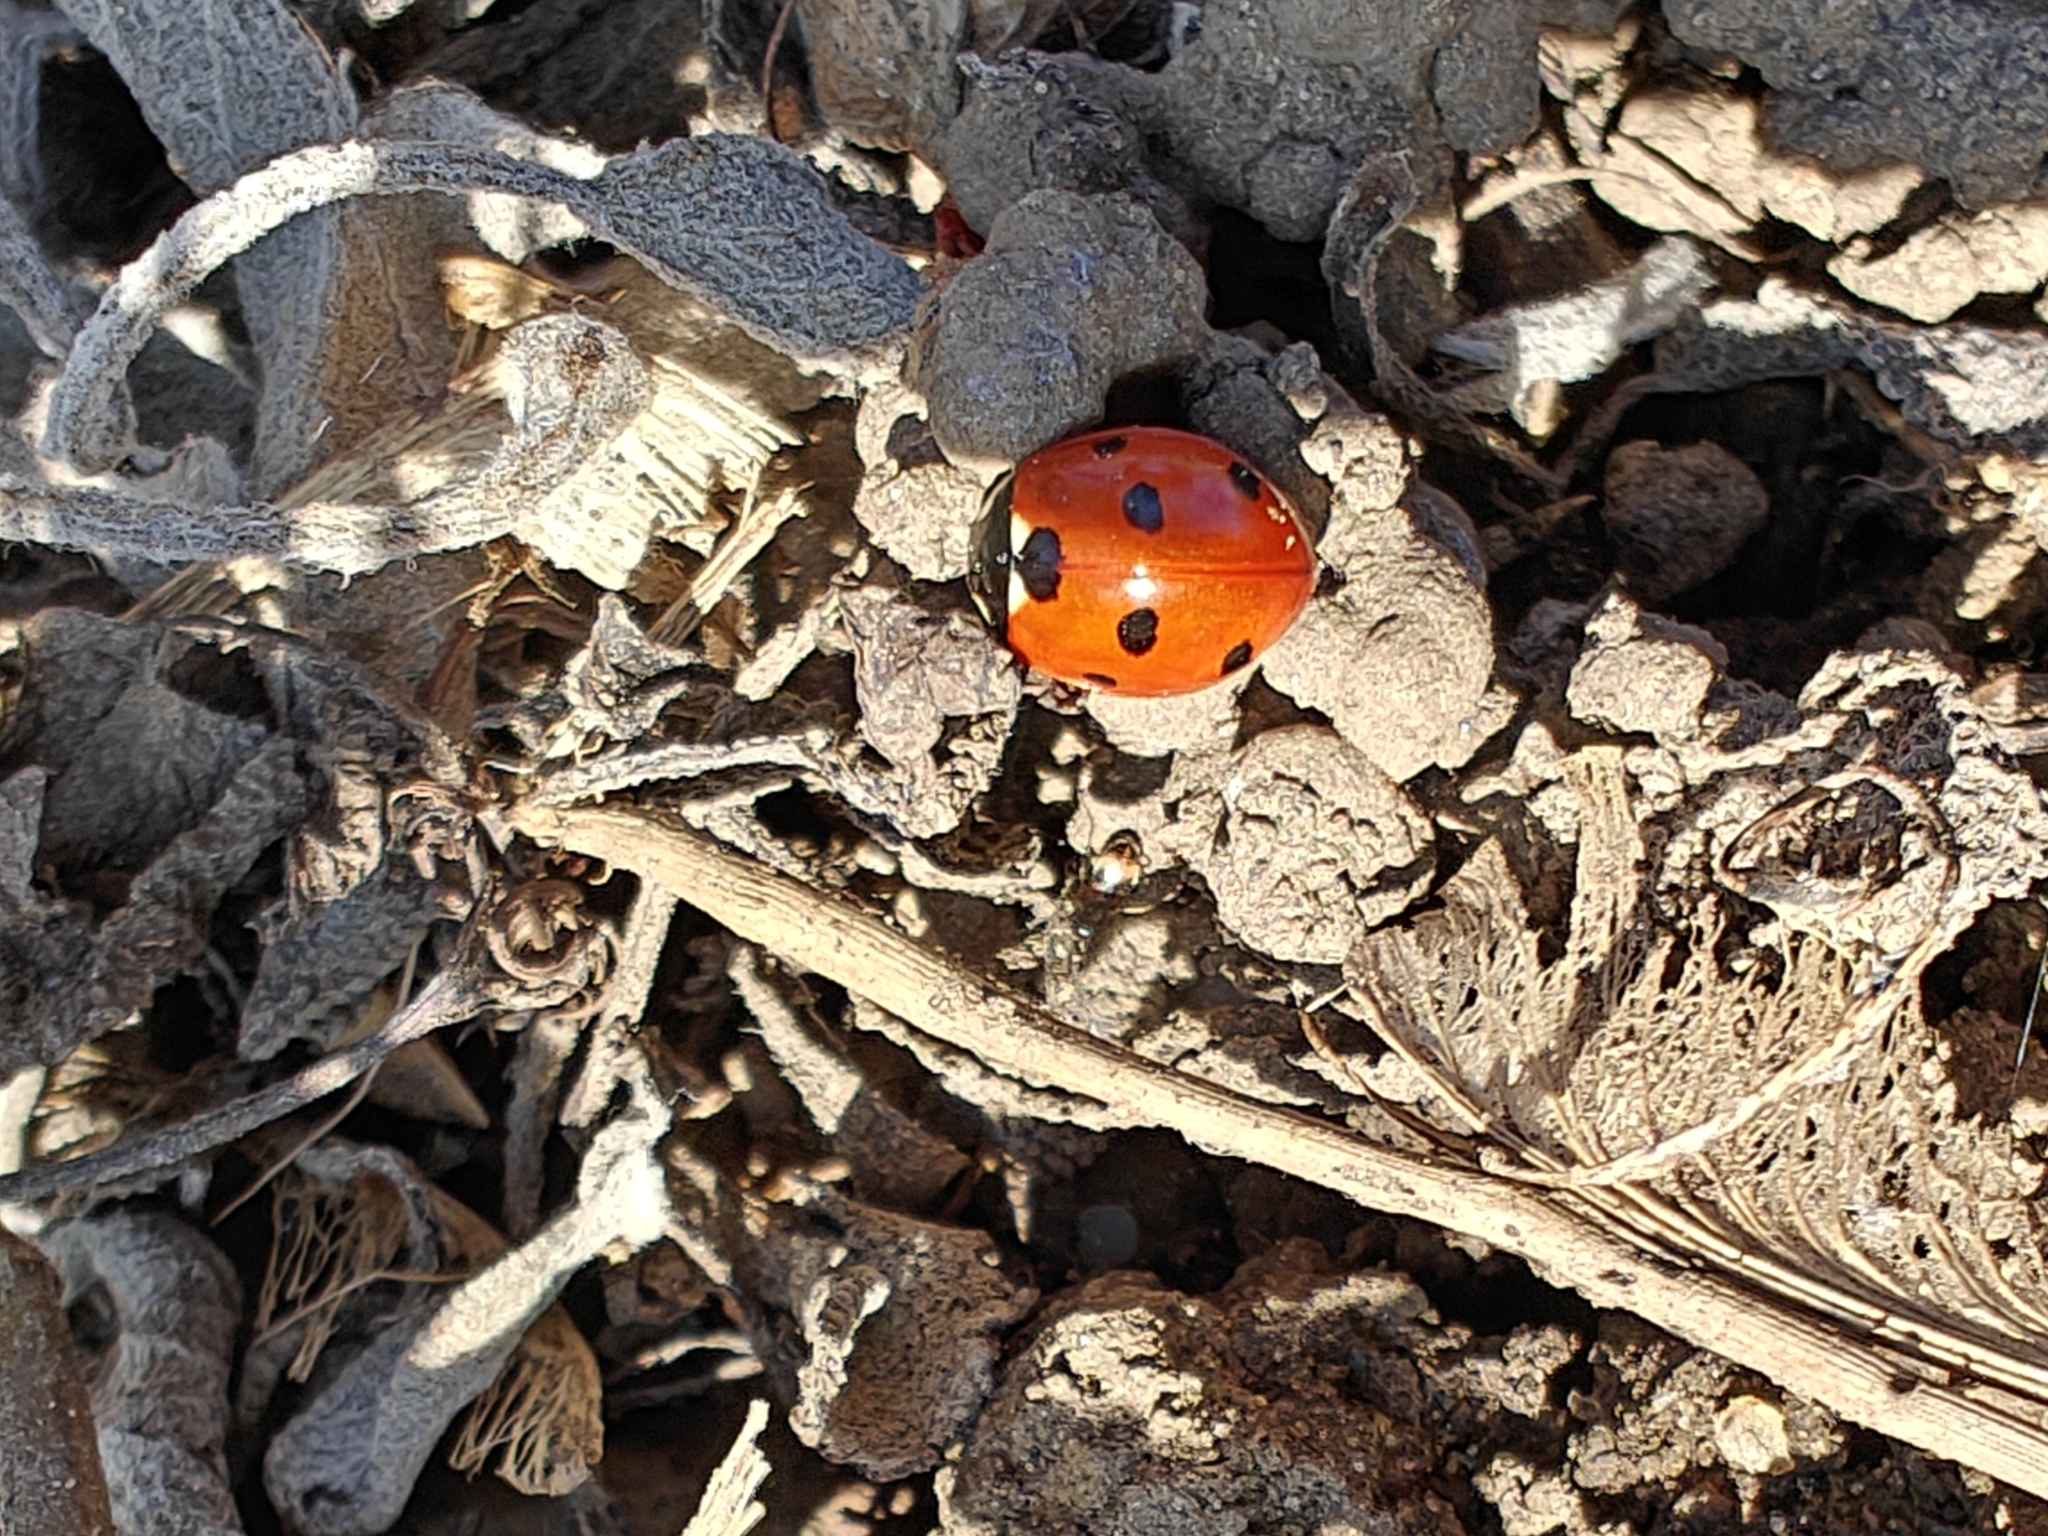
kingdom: Animalia
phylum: Arthropoda
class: Insecta
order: Coleoptera
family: Coccinellidae
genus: Coccinella
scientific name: Coccinella septempunctata
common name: Sevenspotted lady beetle
